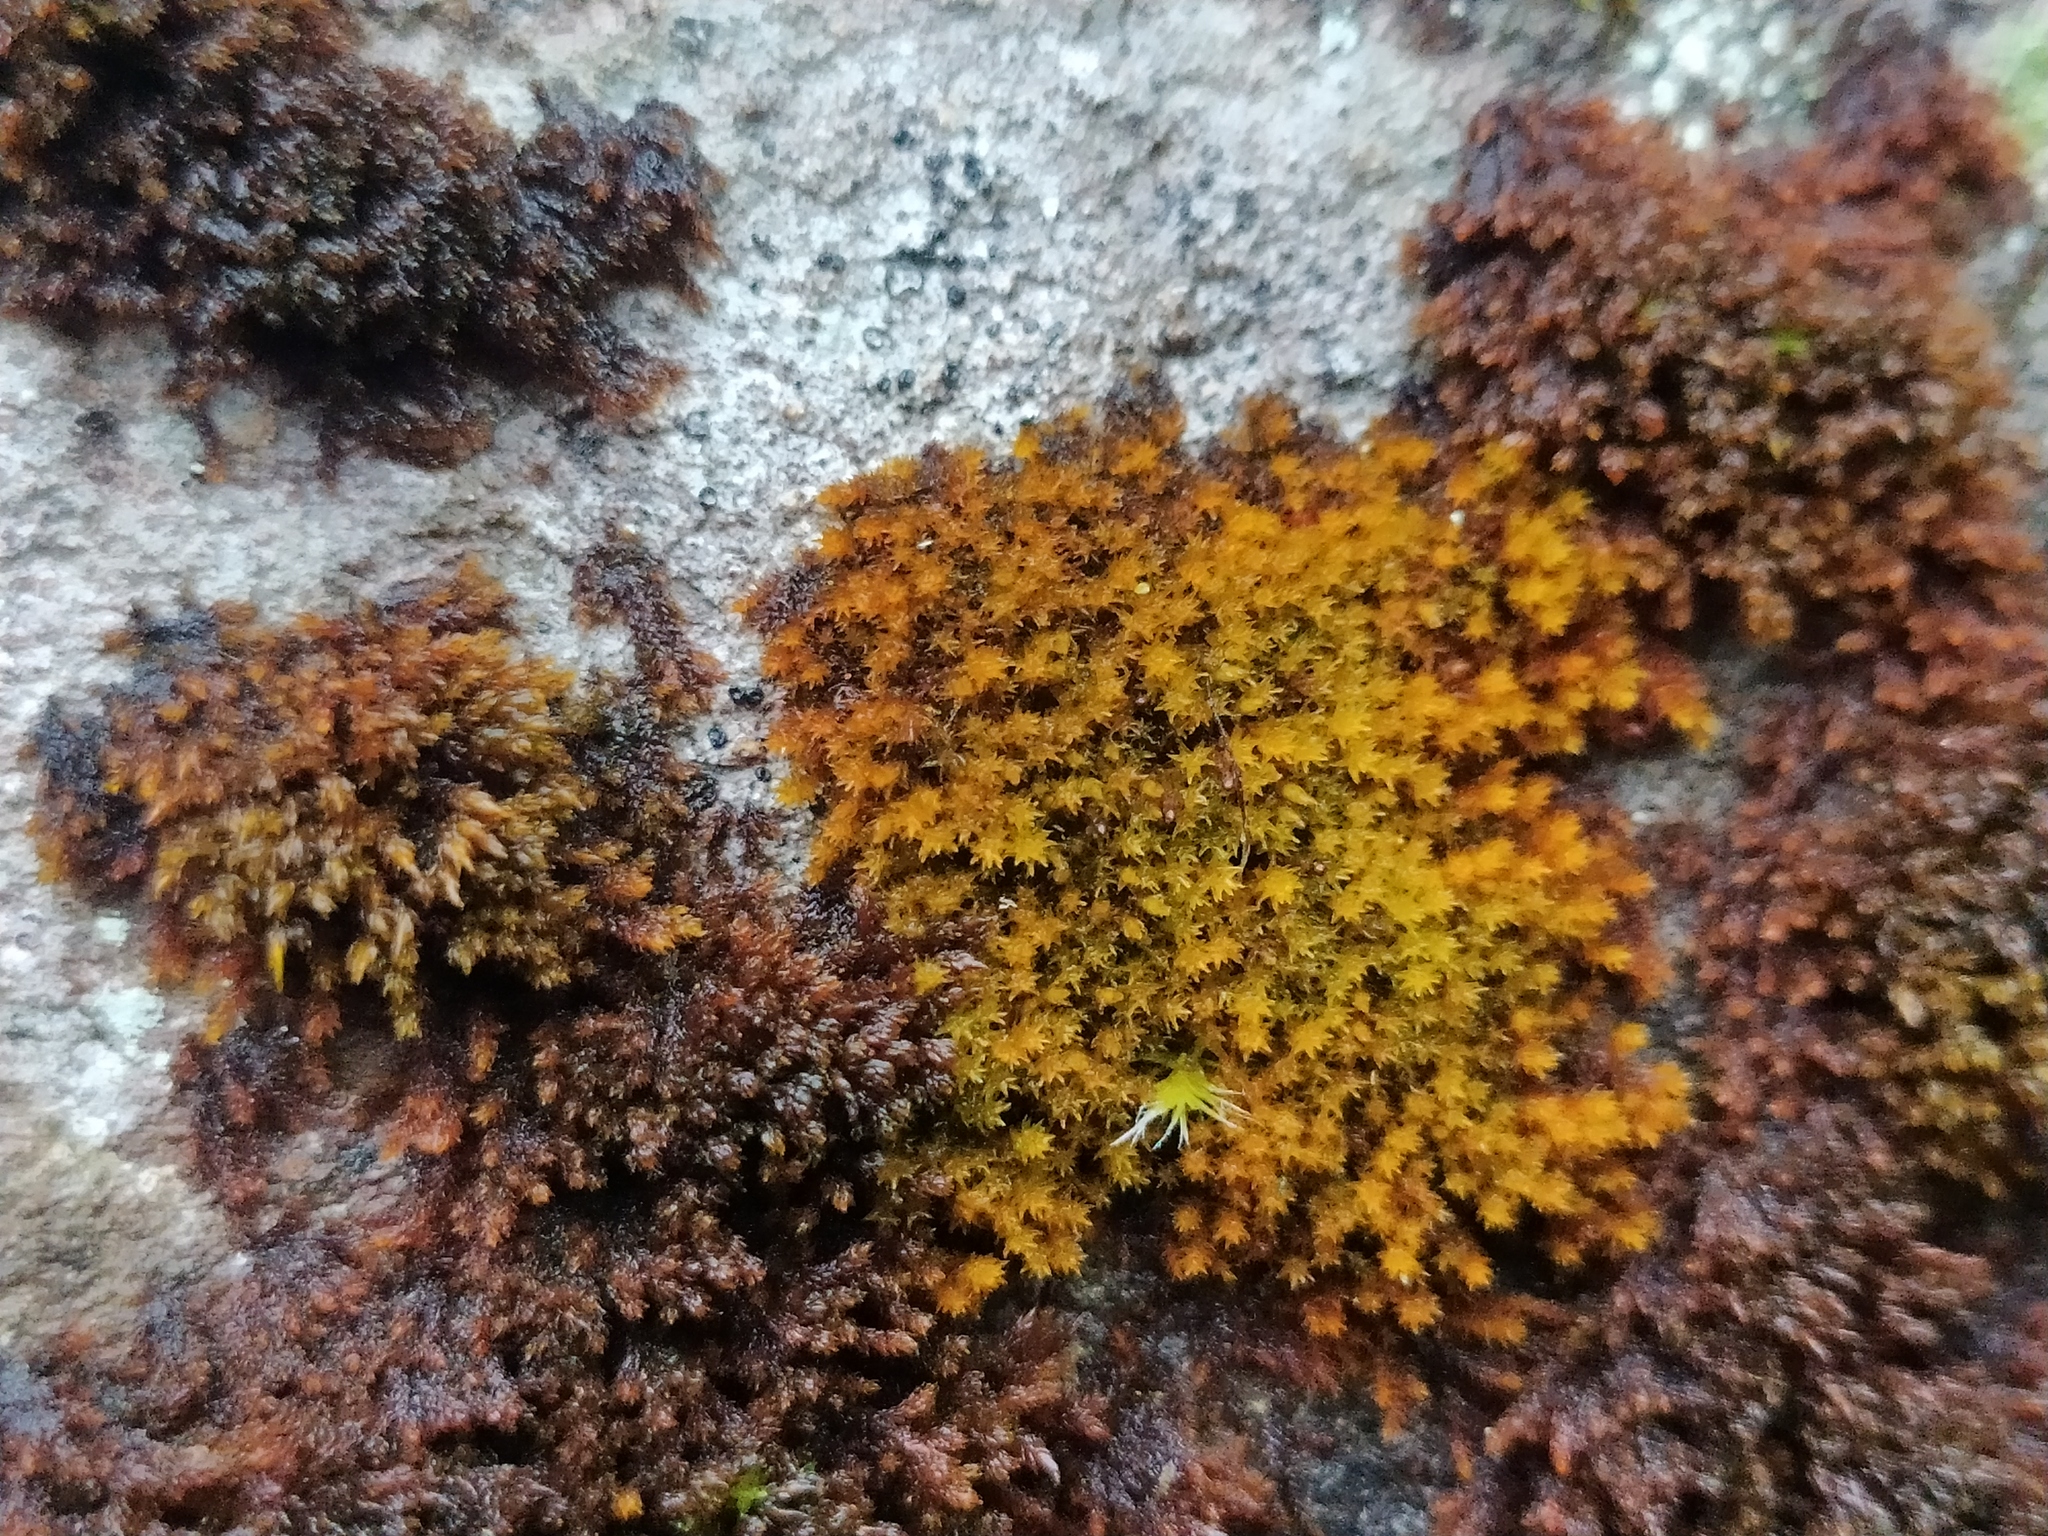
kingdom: Plantae
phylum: Bryophyta
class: Andreaeopsida
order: Andreaeales
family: Andreaeaceae
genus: Andreaea
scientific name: Andreaea rupestris
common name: Black rock moss
